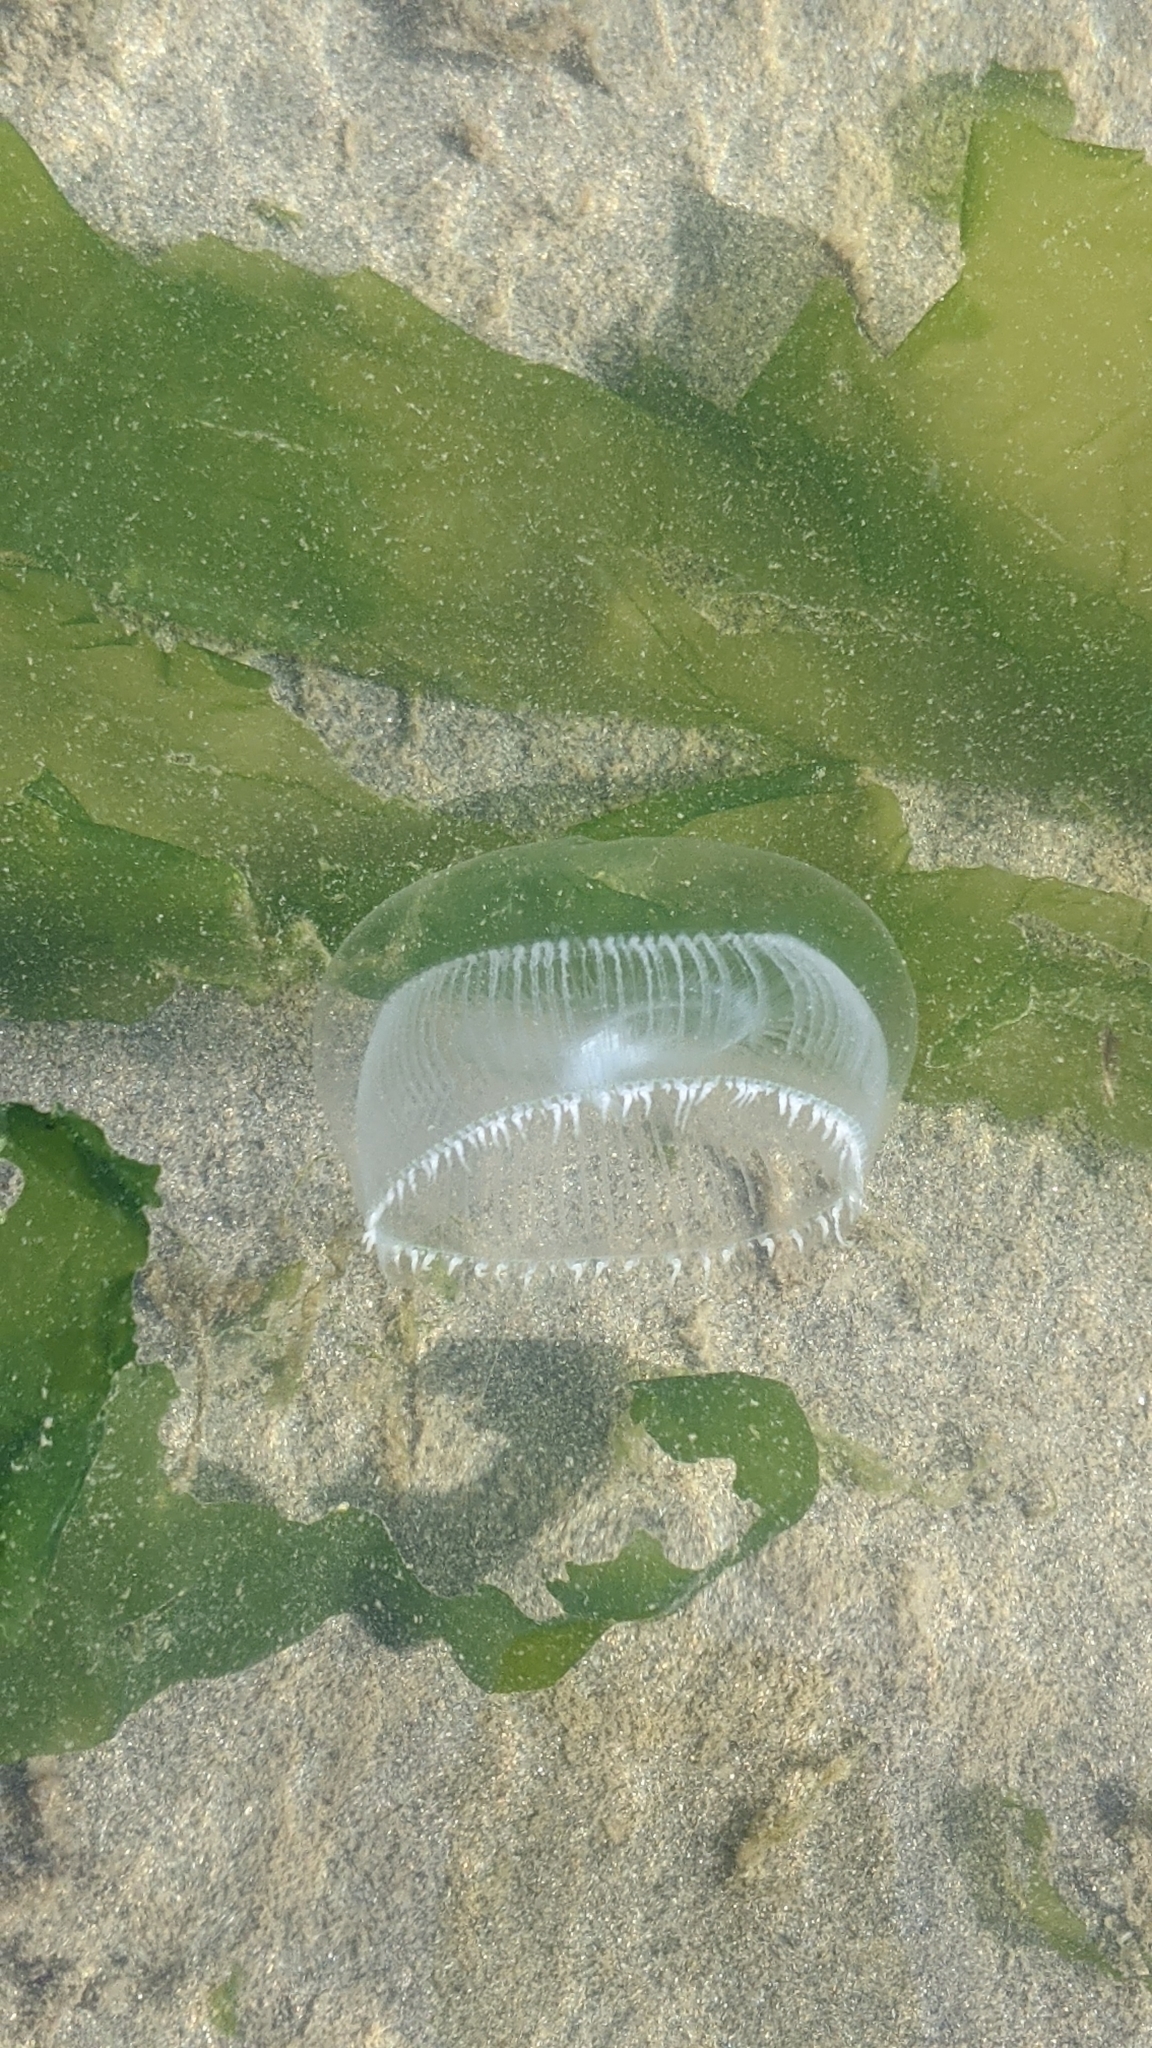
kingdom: Animalia
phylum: Cnidaria
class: Hydrozoa
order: Leptothecata
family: Aequoreidae
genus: Aequorea
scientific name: Aequorea victoria
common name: Water jellyfish
